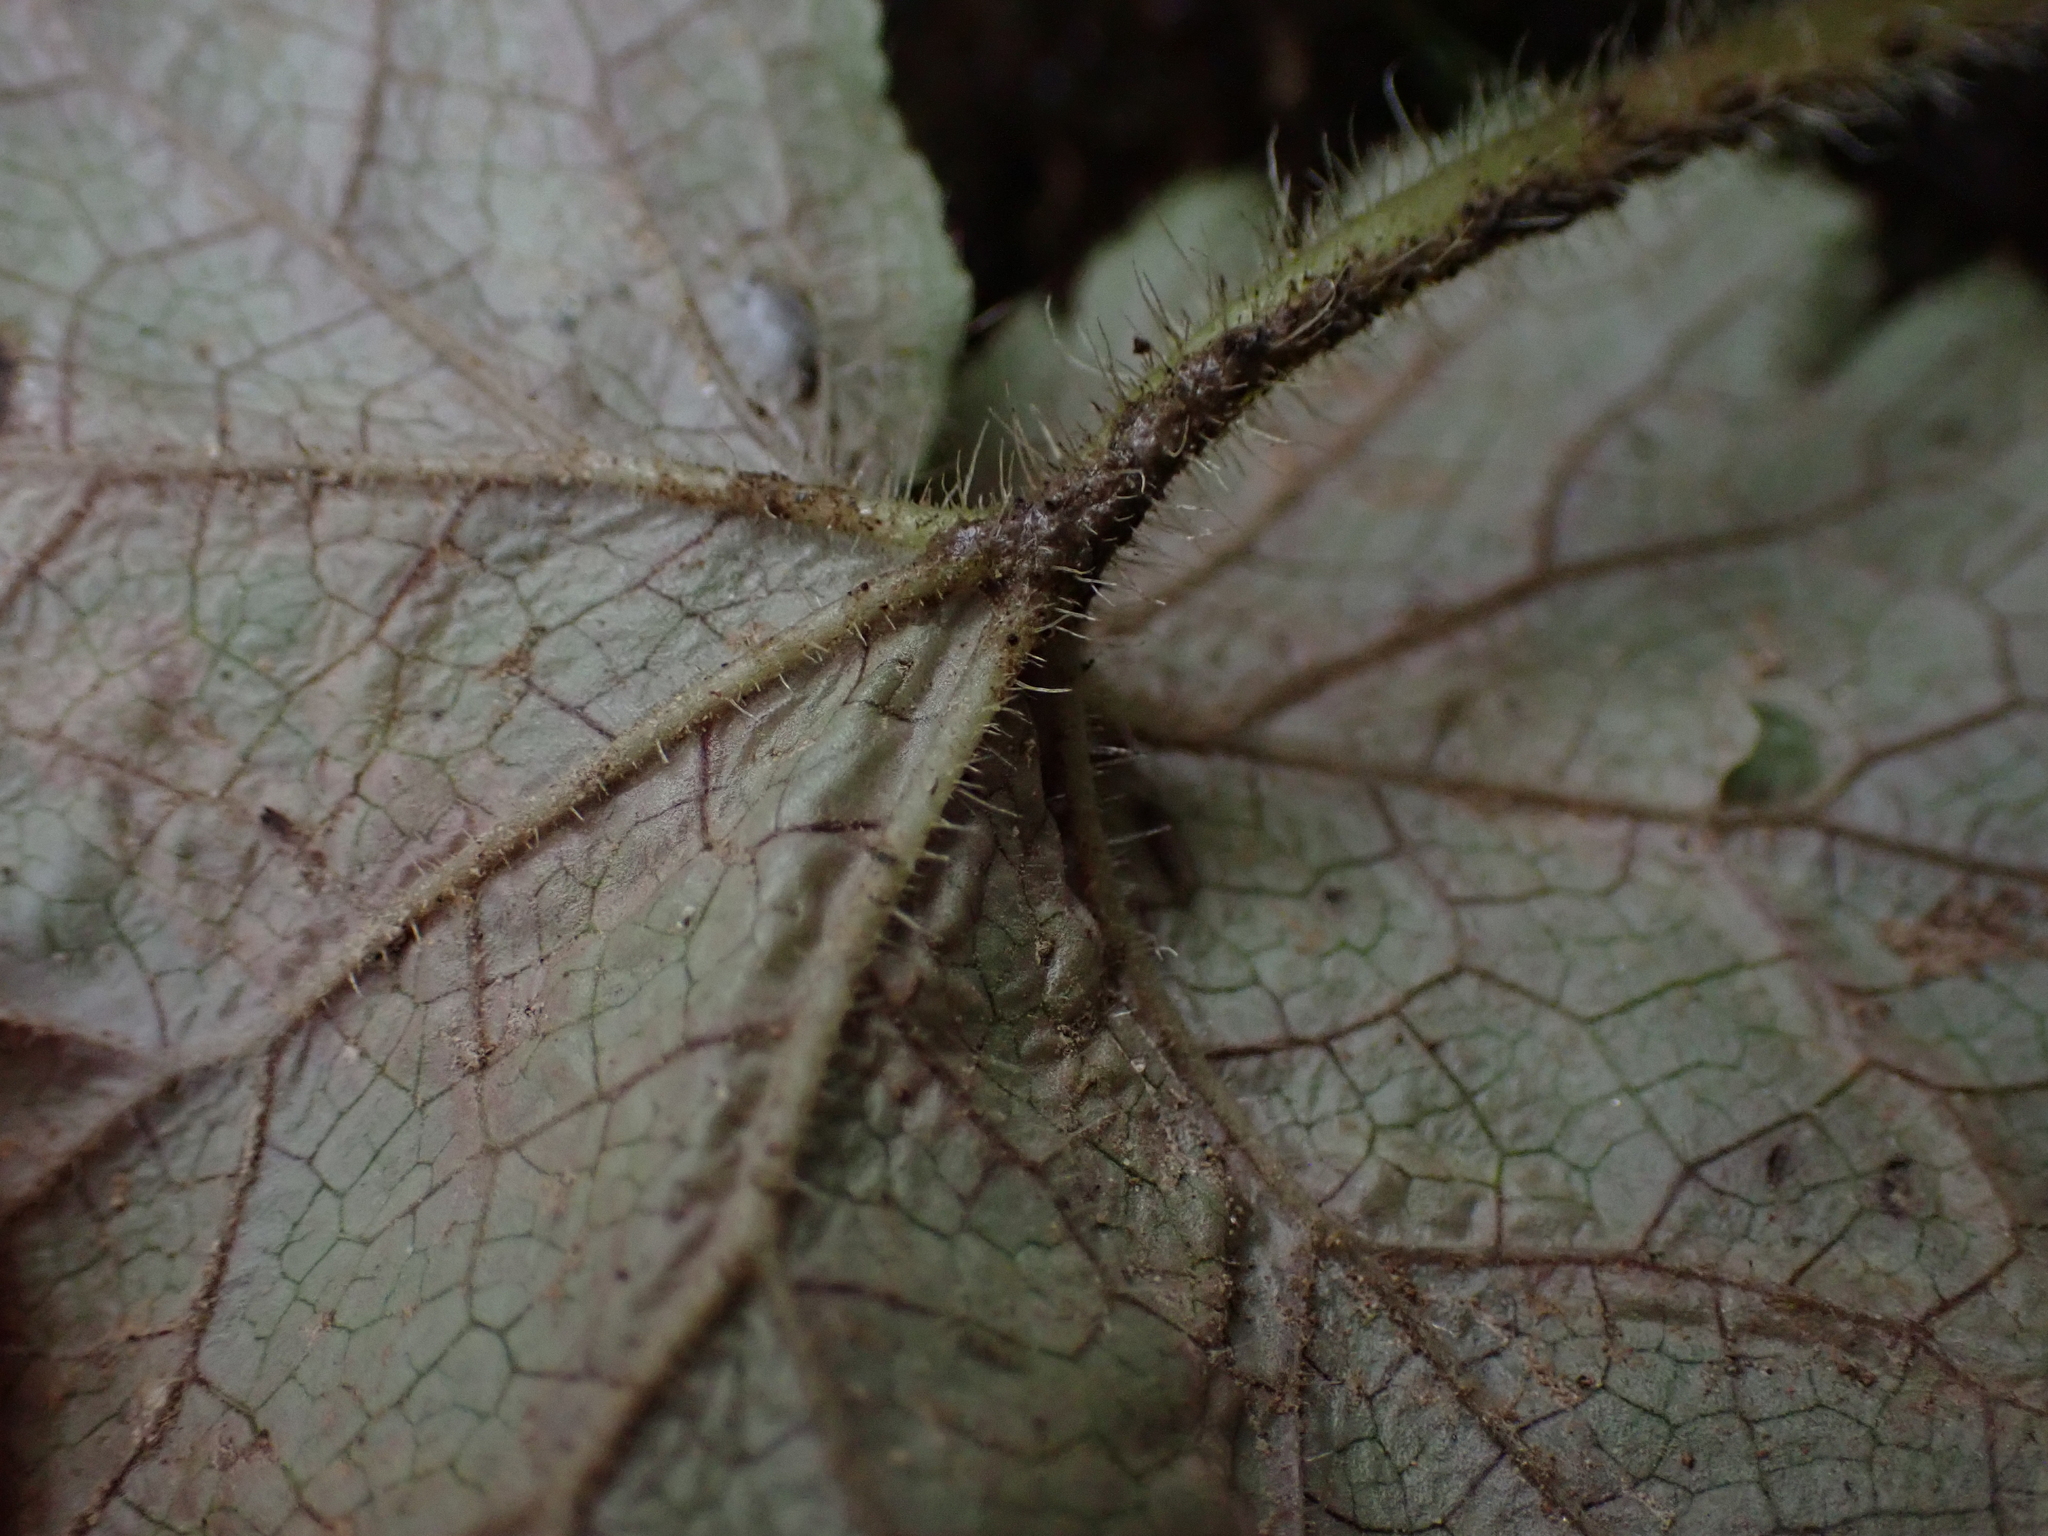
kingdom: Animalia
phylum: Arthropoda
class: Insecta
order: Diptera
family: Agromyzidae
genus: Phytomyza
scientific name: Phytomyza tiarellae
